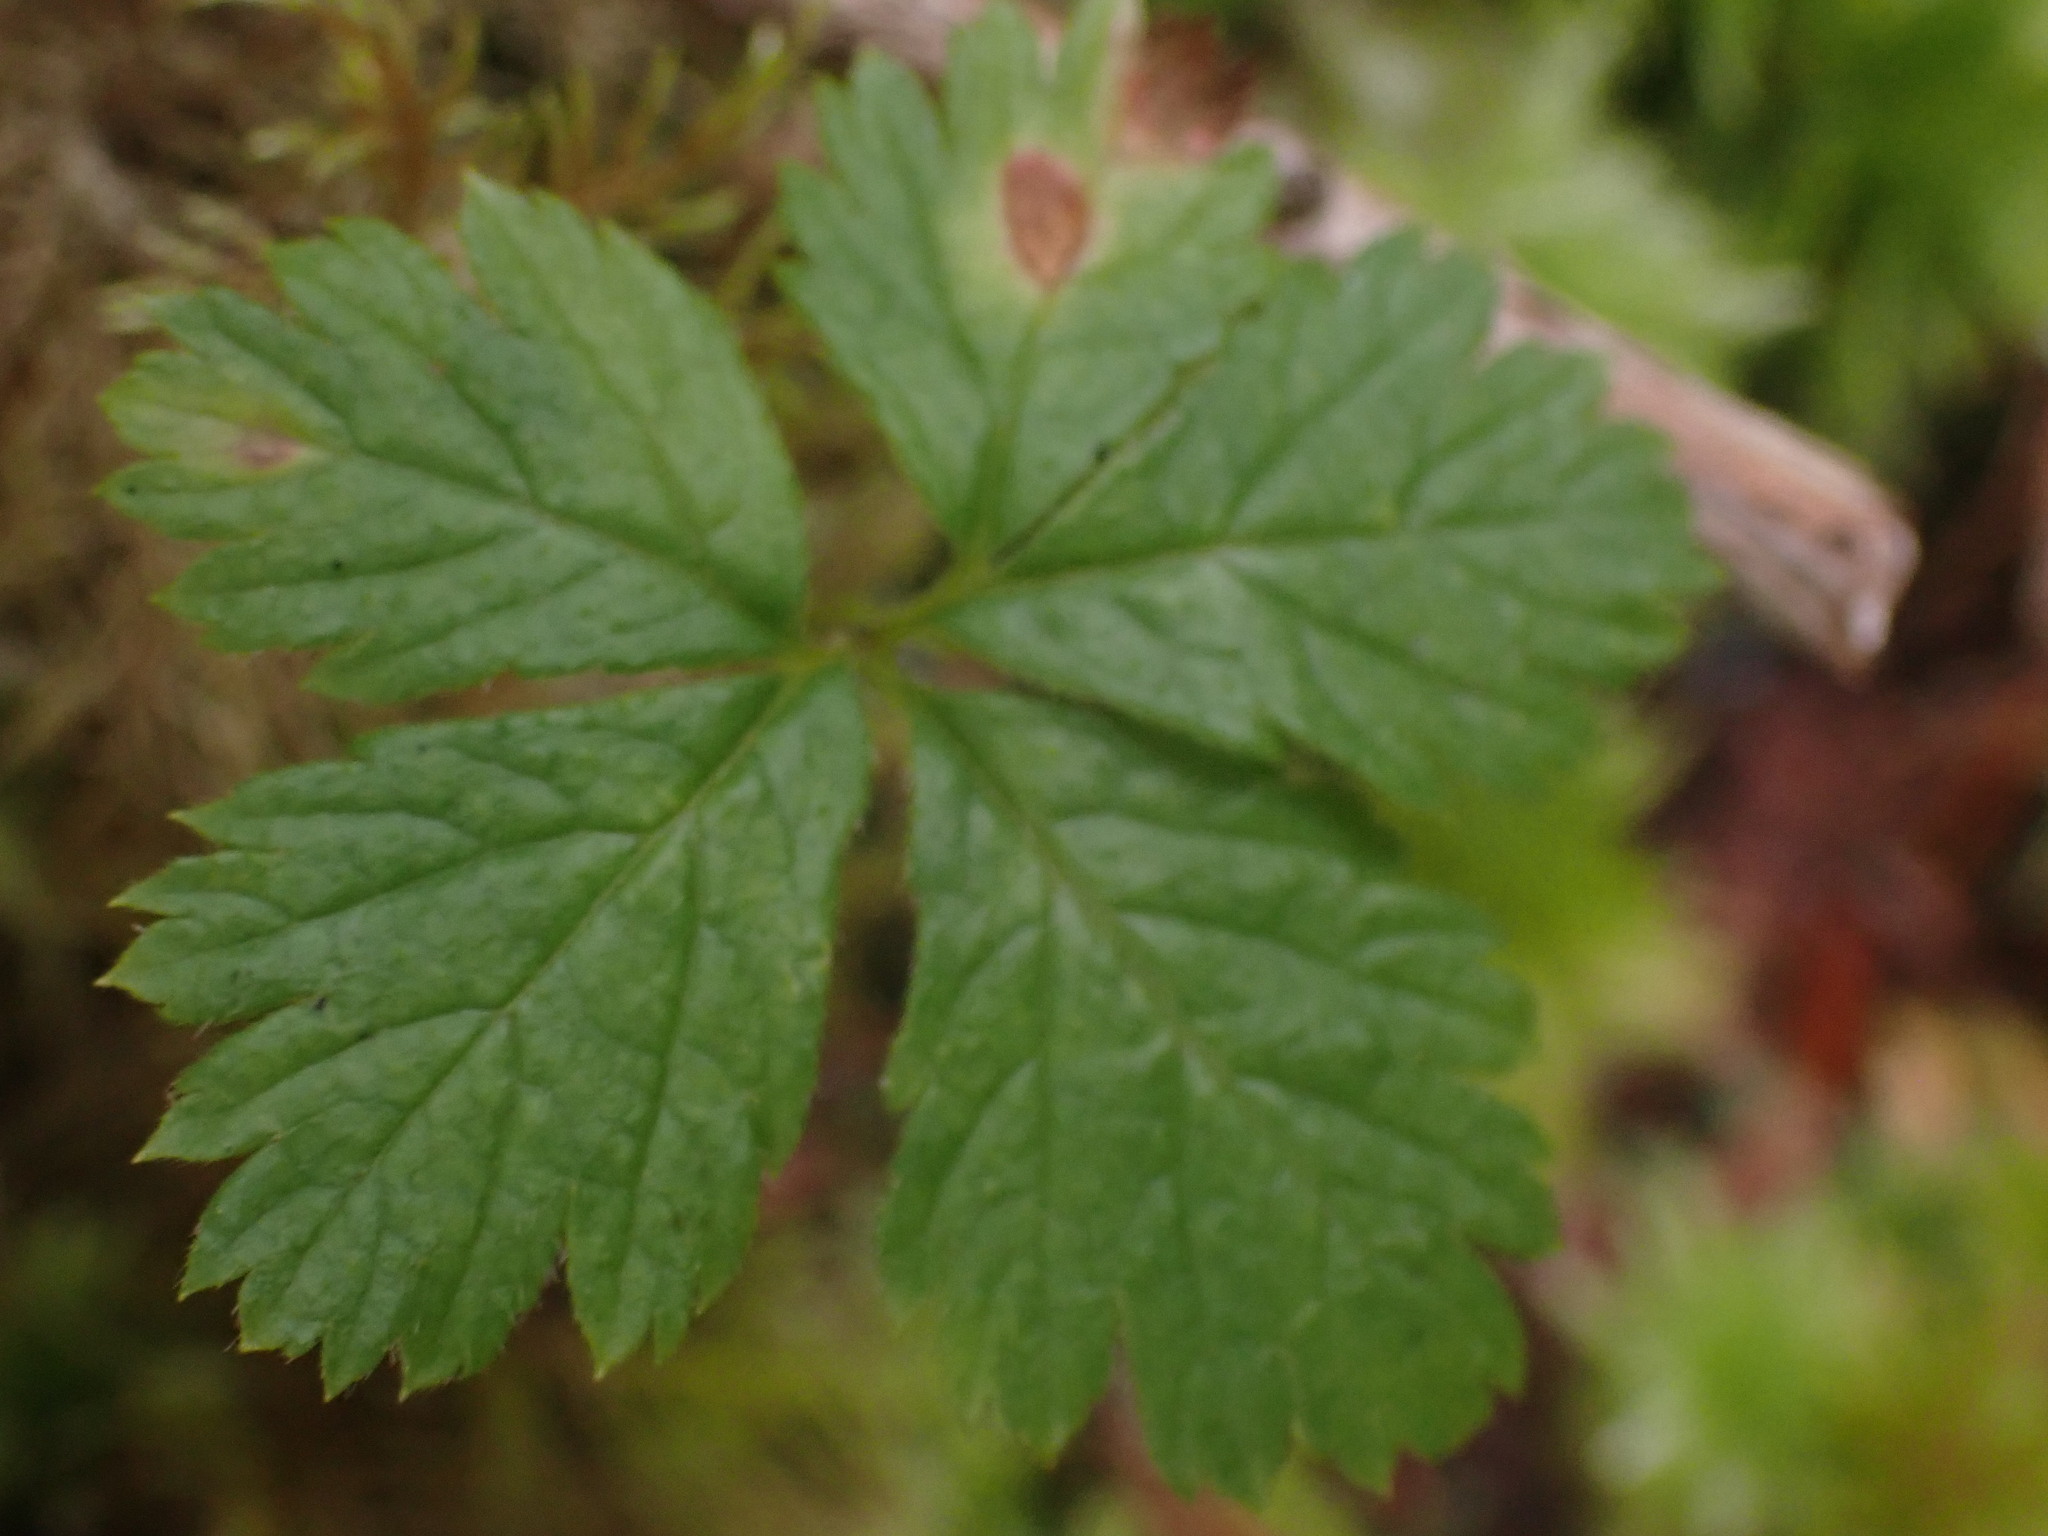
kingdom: Plantae
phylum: Tracheophyta
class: Magnoliopsida
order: Rosales
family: Rosaceae
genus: Rubus
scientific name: Rubus pedatus
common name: Creeping raspberry
